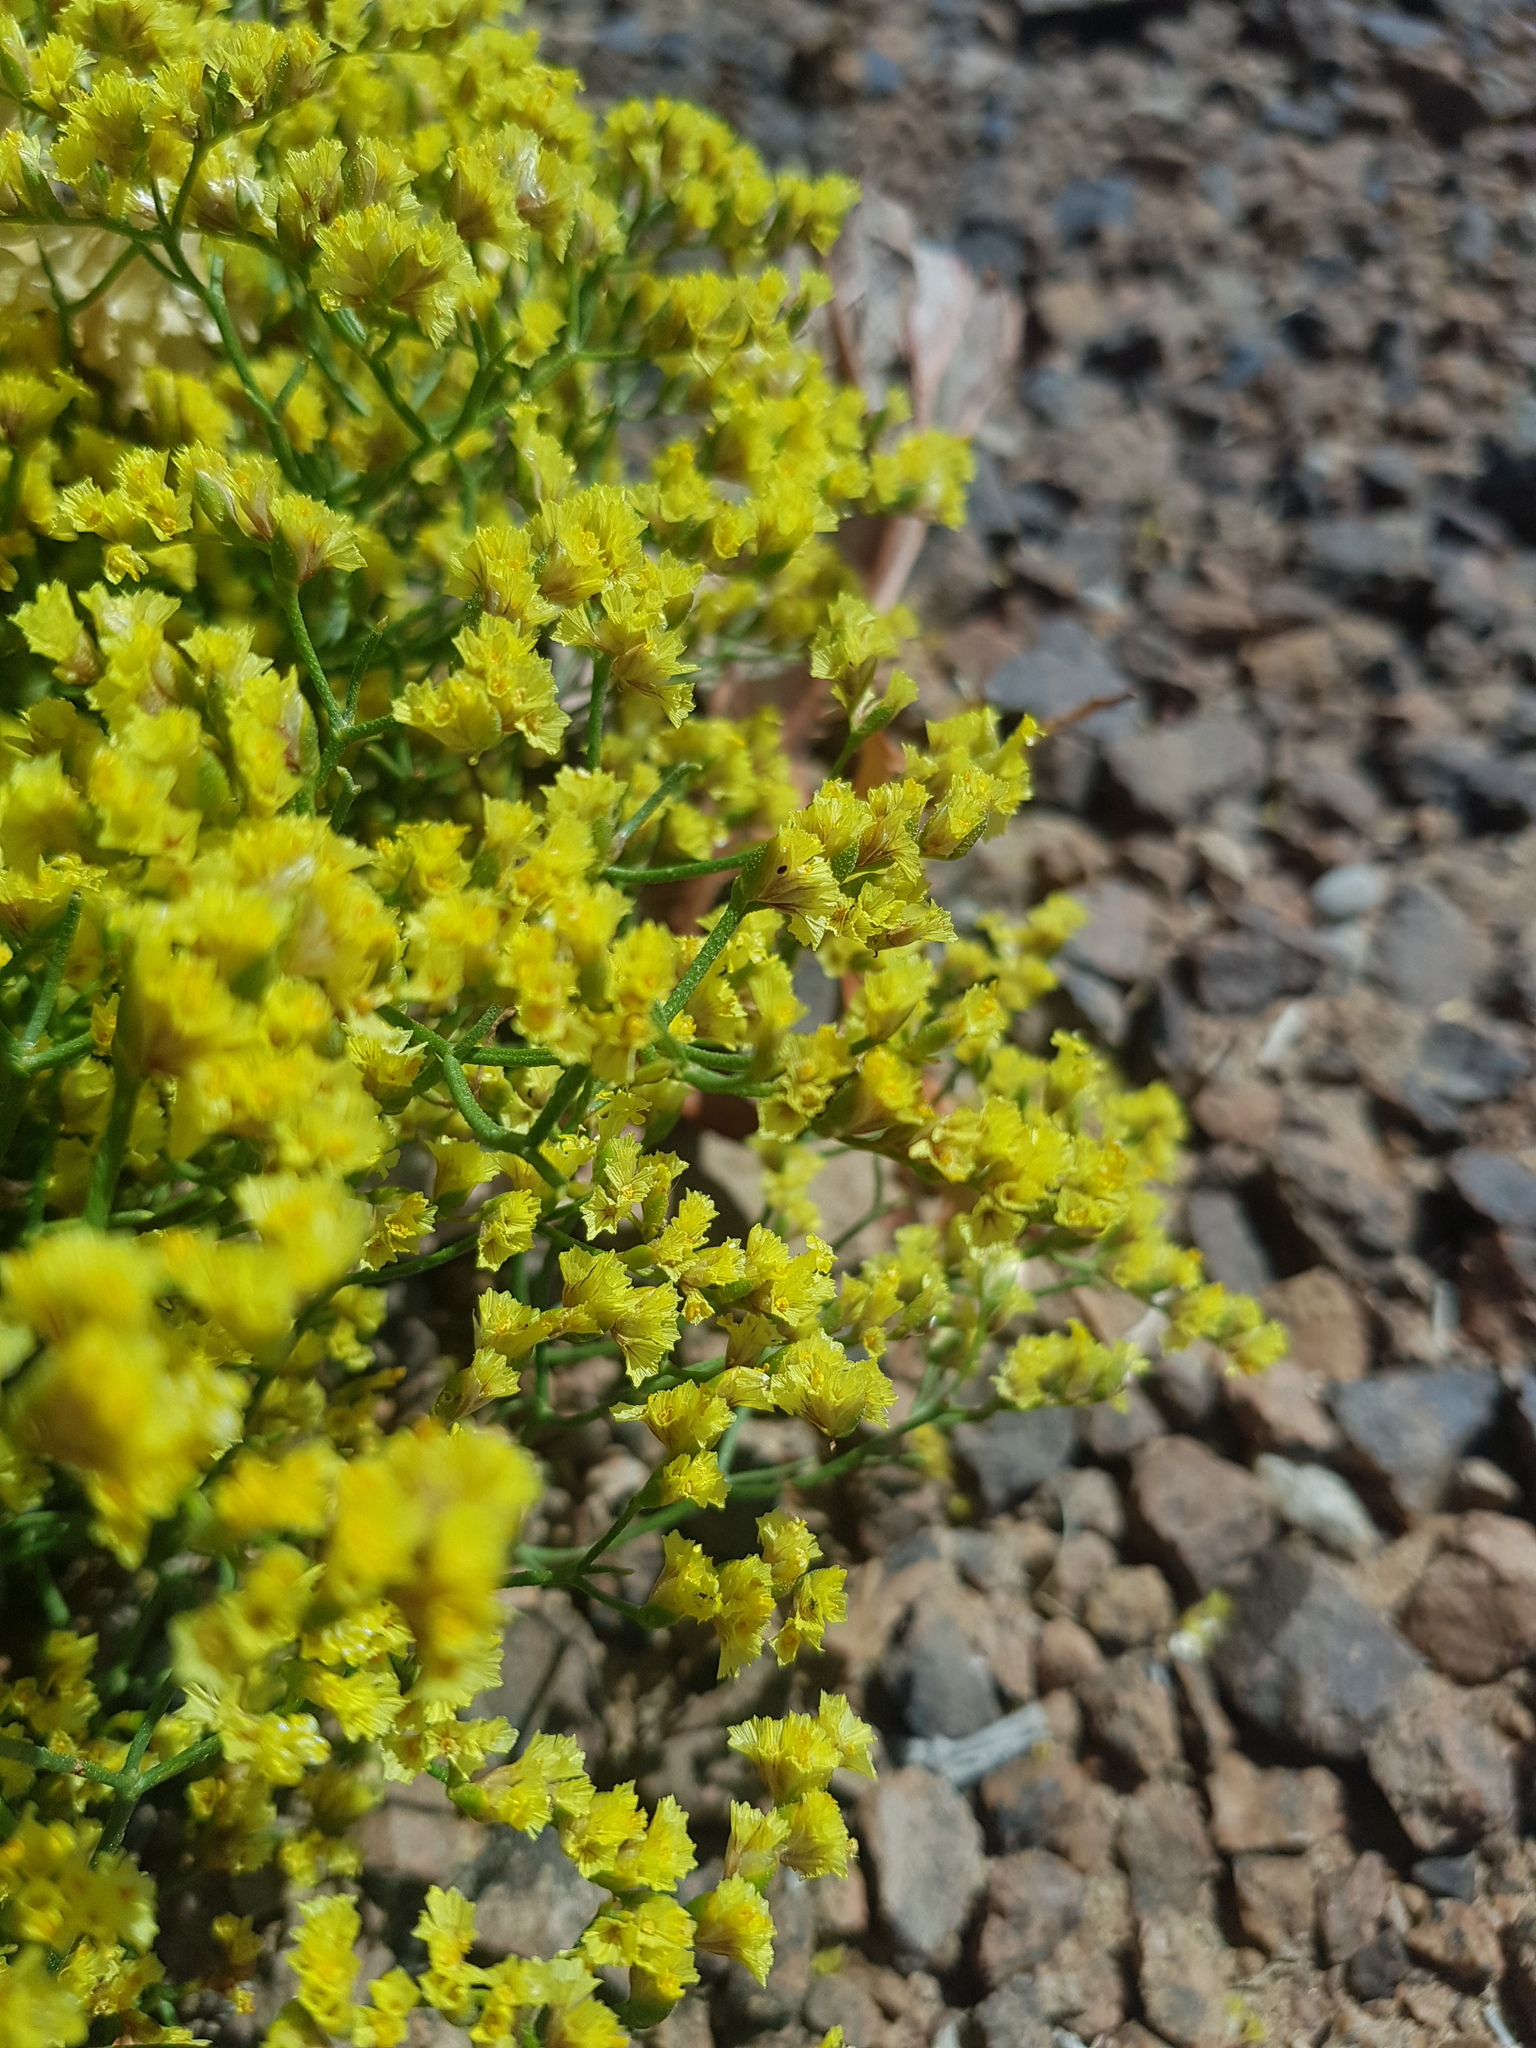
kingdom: Plantae
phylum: Tracheophyta
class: Magnoliopsida
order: Caryophyllales
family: Plumbaginaceae
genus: Limonium
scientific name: Limonium aureum
